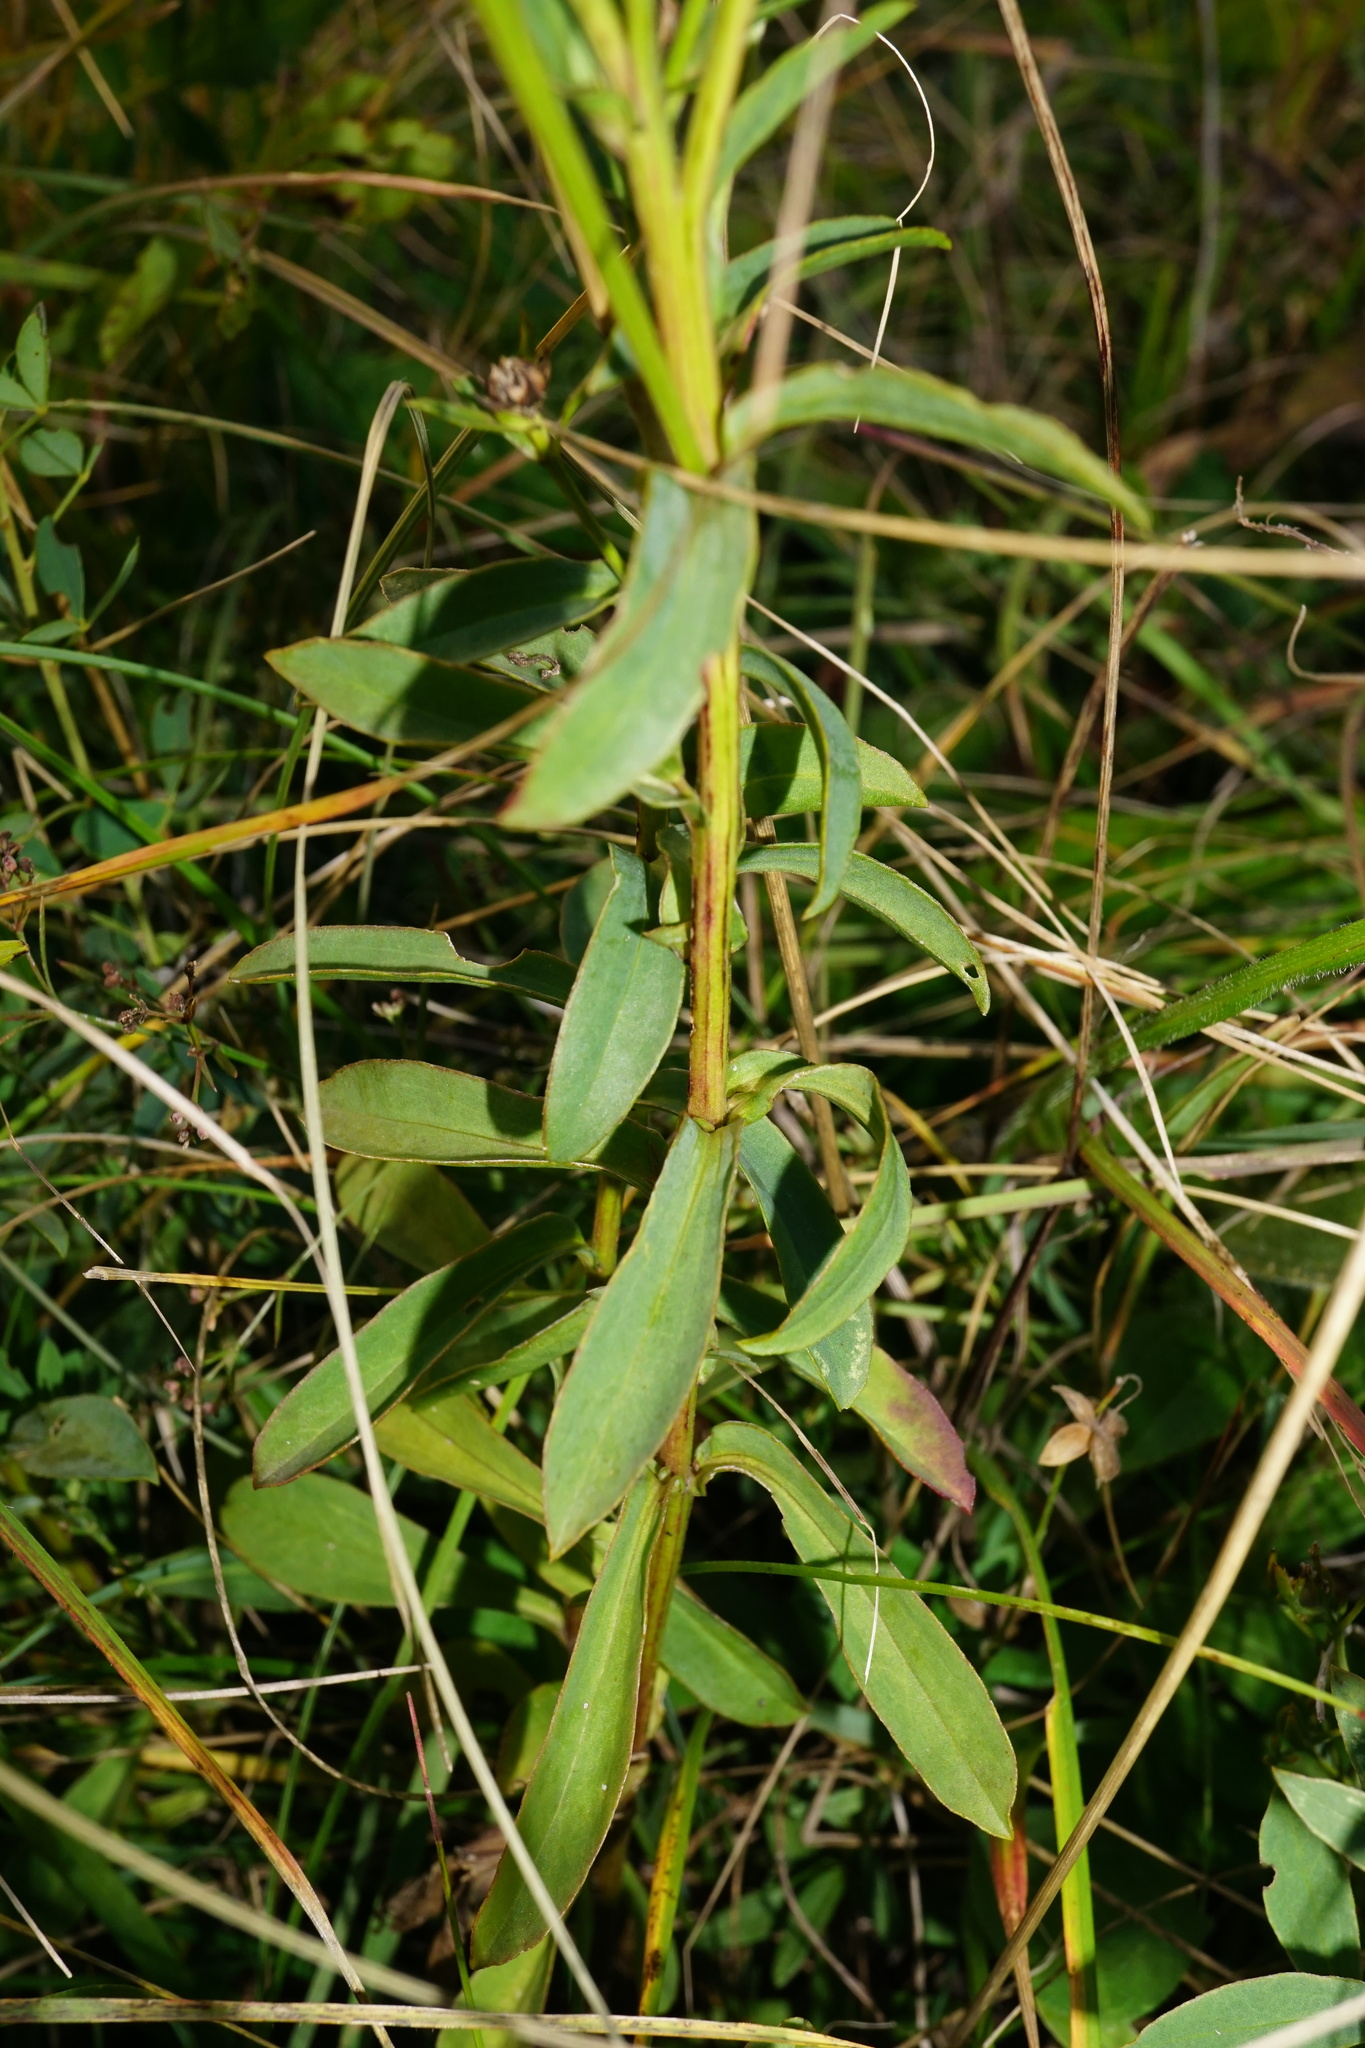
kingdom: Plantae
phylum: Tracheophyta
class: Magnoliopsida
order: Malpighiales
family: Linaceae
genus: Linum
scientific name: Linum flavum
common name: Yellow flax
